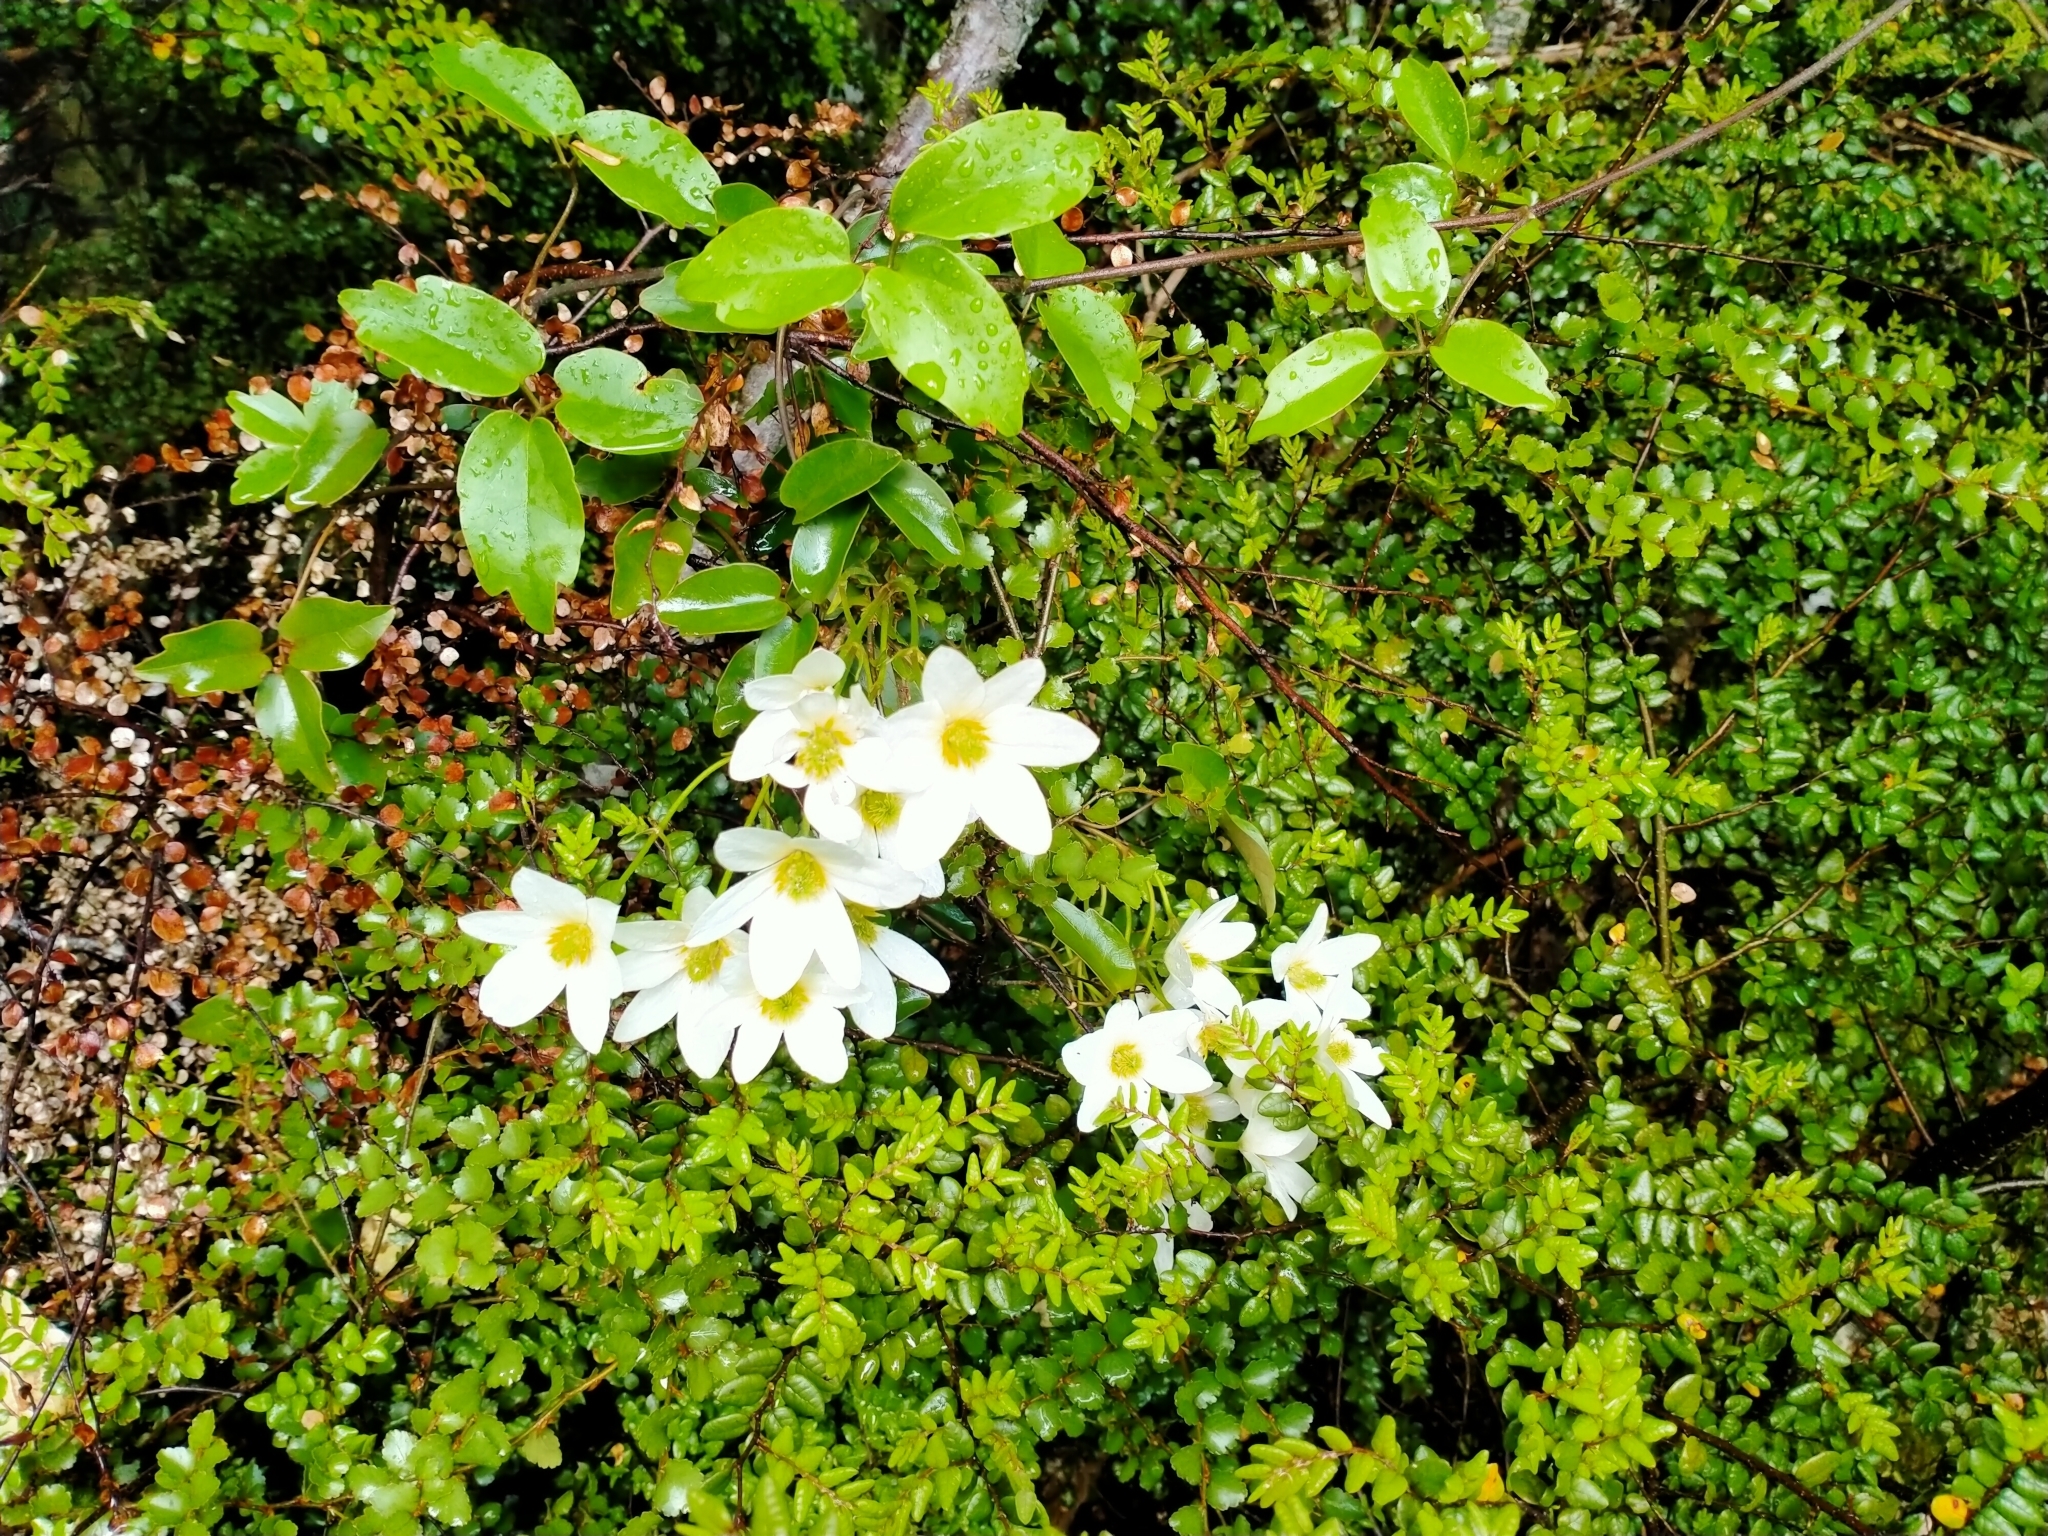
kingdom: Plantae
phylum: Tracheophyta
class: Magnoliopsida
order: Ranunculales
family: Ranunculaceae
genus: Clematis
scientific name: Clematis paniculata
